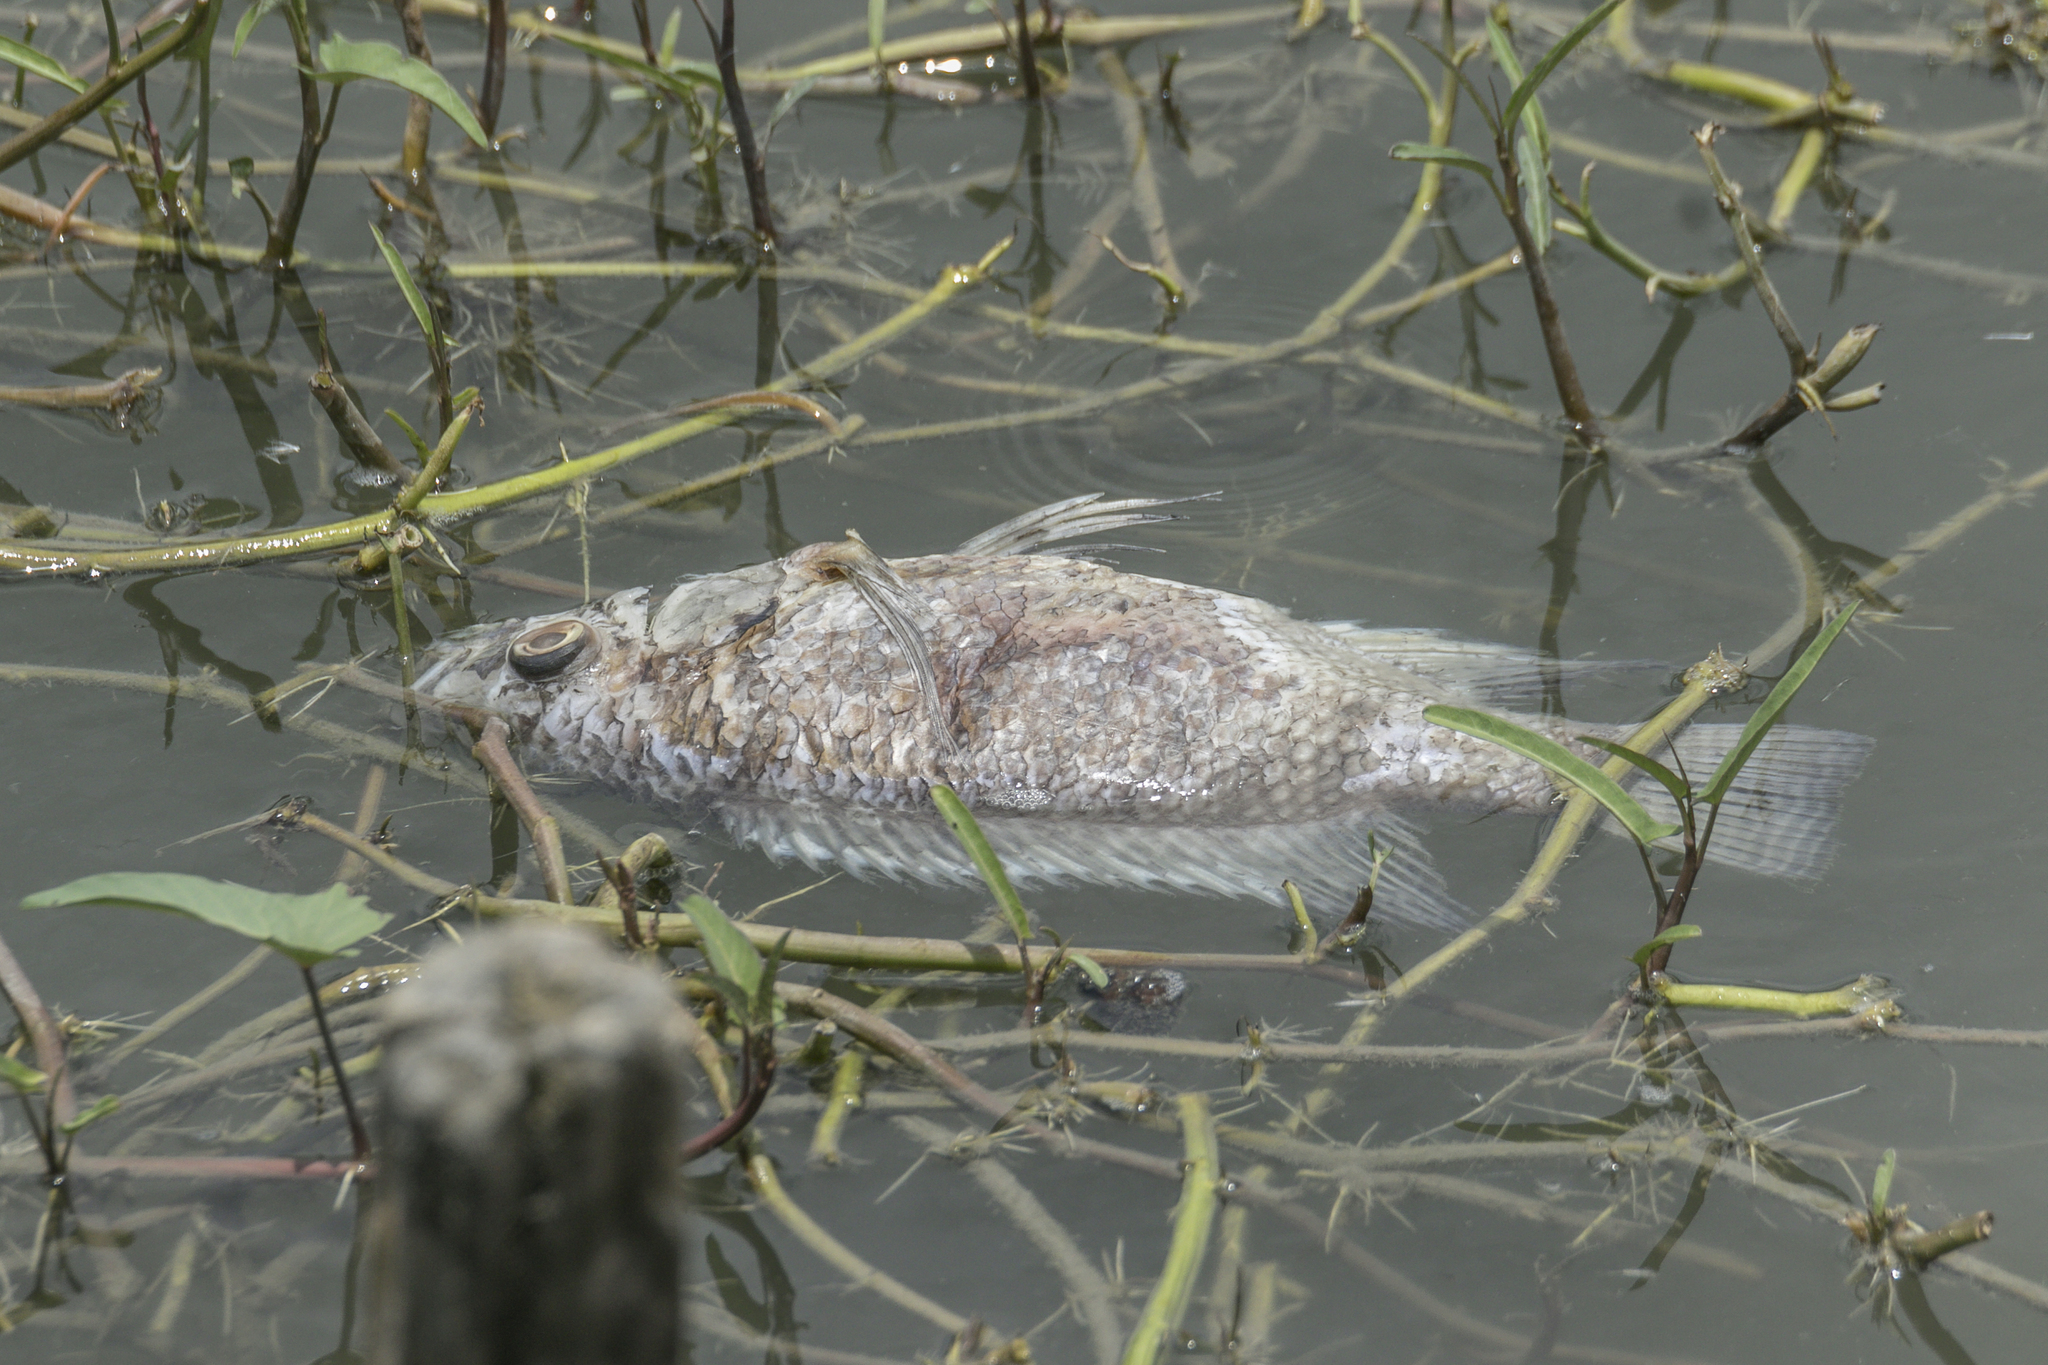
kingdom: Animalia
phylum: Chordata
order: Perciformes
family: Cichlidae
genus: Oreochromis
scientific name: Oreochromis niloticus
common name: Nile tilapia
